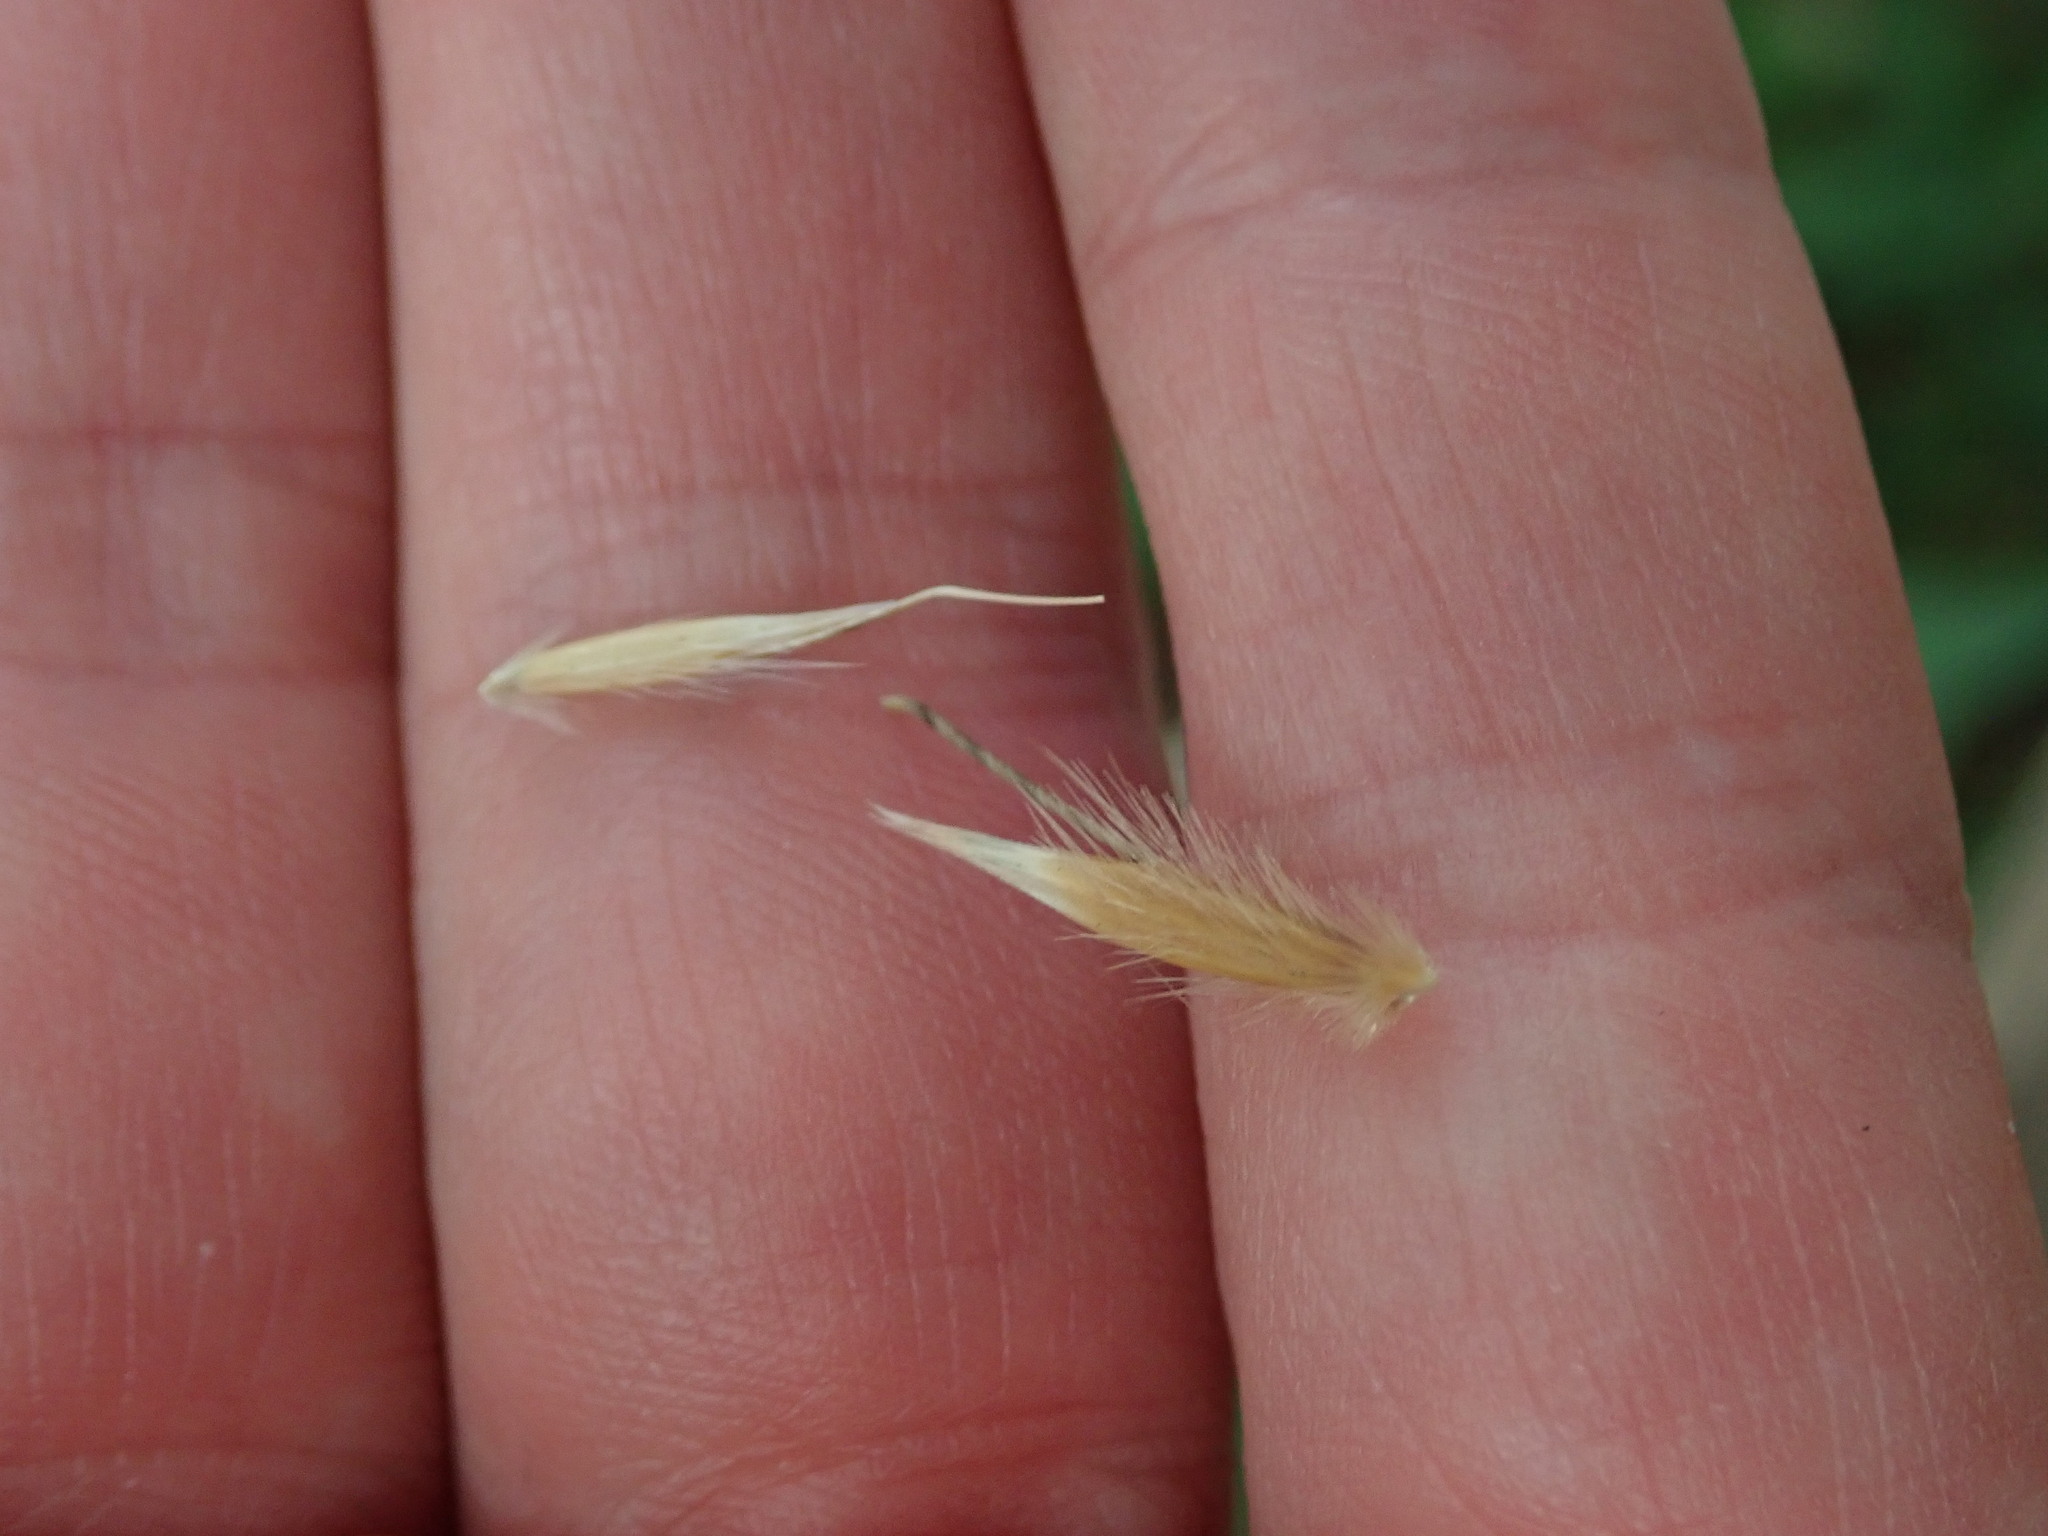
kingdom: Plantae
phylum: Tracheophyta
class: Liliopsida
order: Poales
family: Poaceae
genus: Avena
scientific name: Avena fatua
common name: Wild oat
